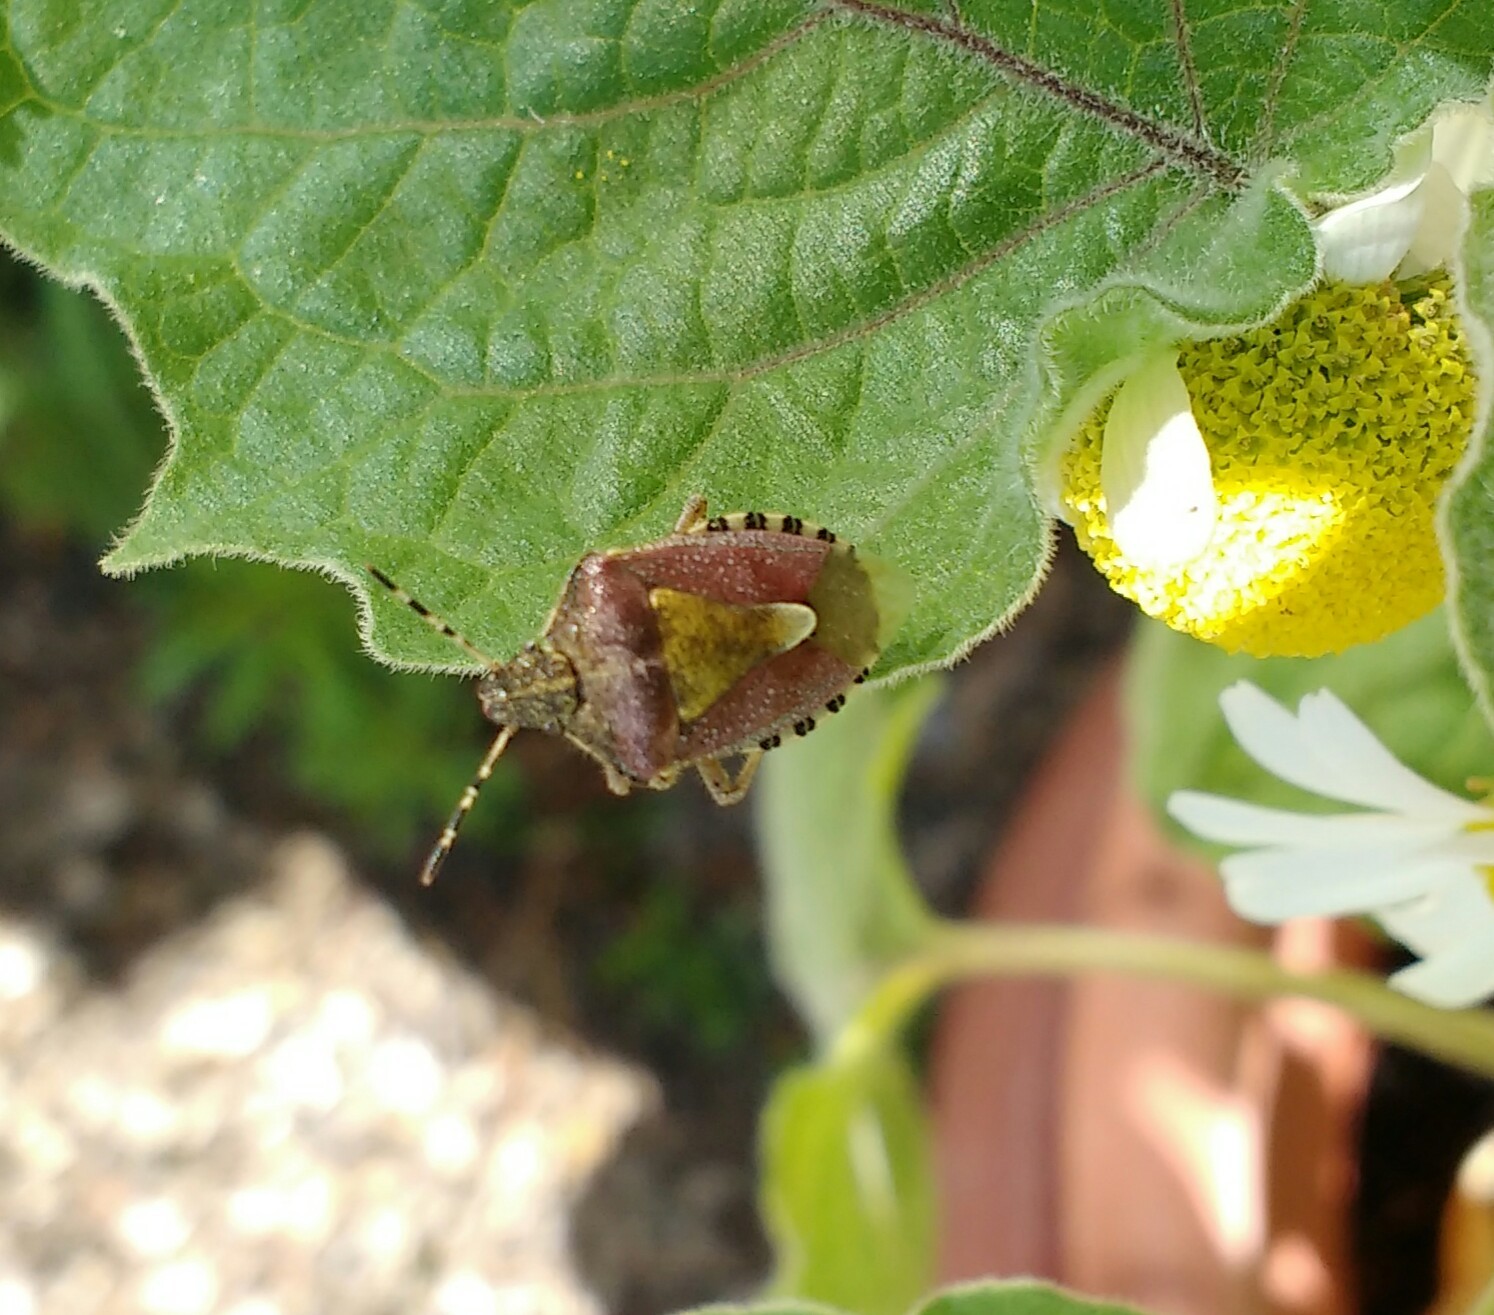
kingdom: Animalia
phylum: Arthropoda
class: Insecta
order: Hemiptera
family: Pentatomidae
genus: Dolycoris
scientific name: Dolycoris baccarum
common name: Sloe bug
